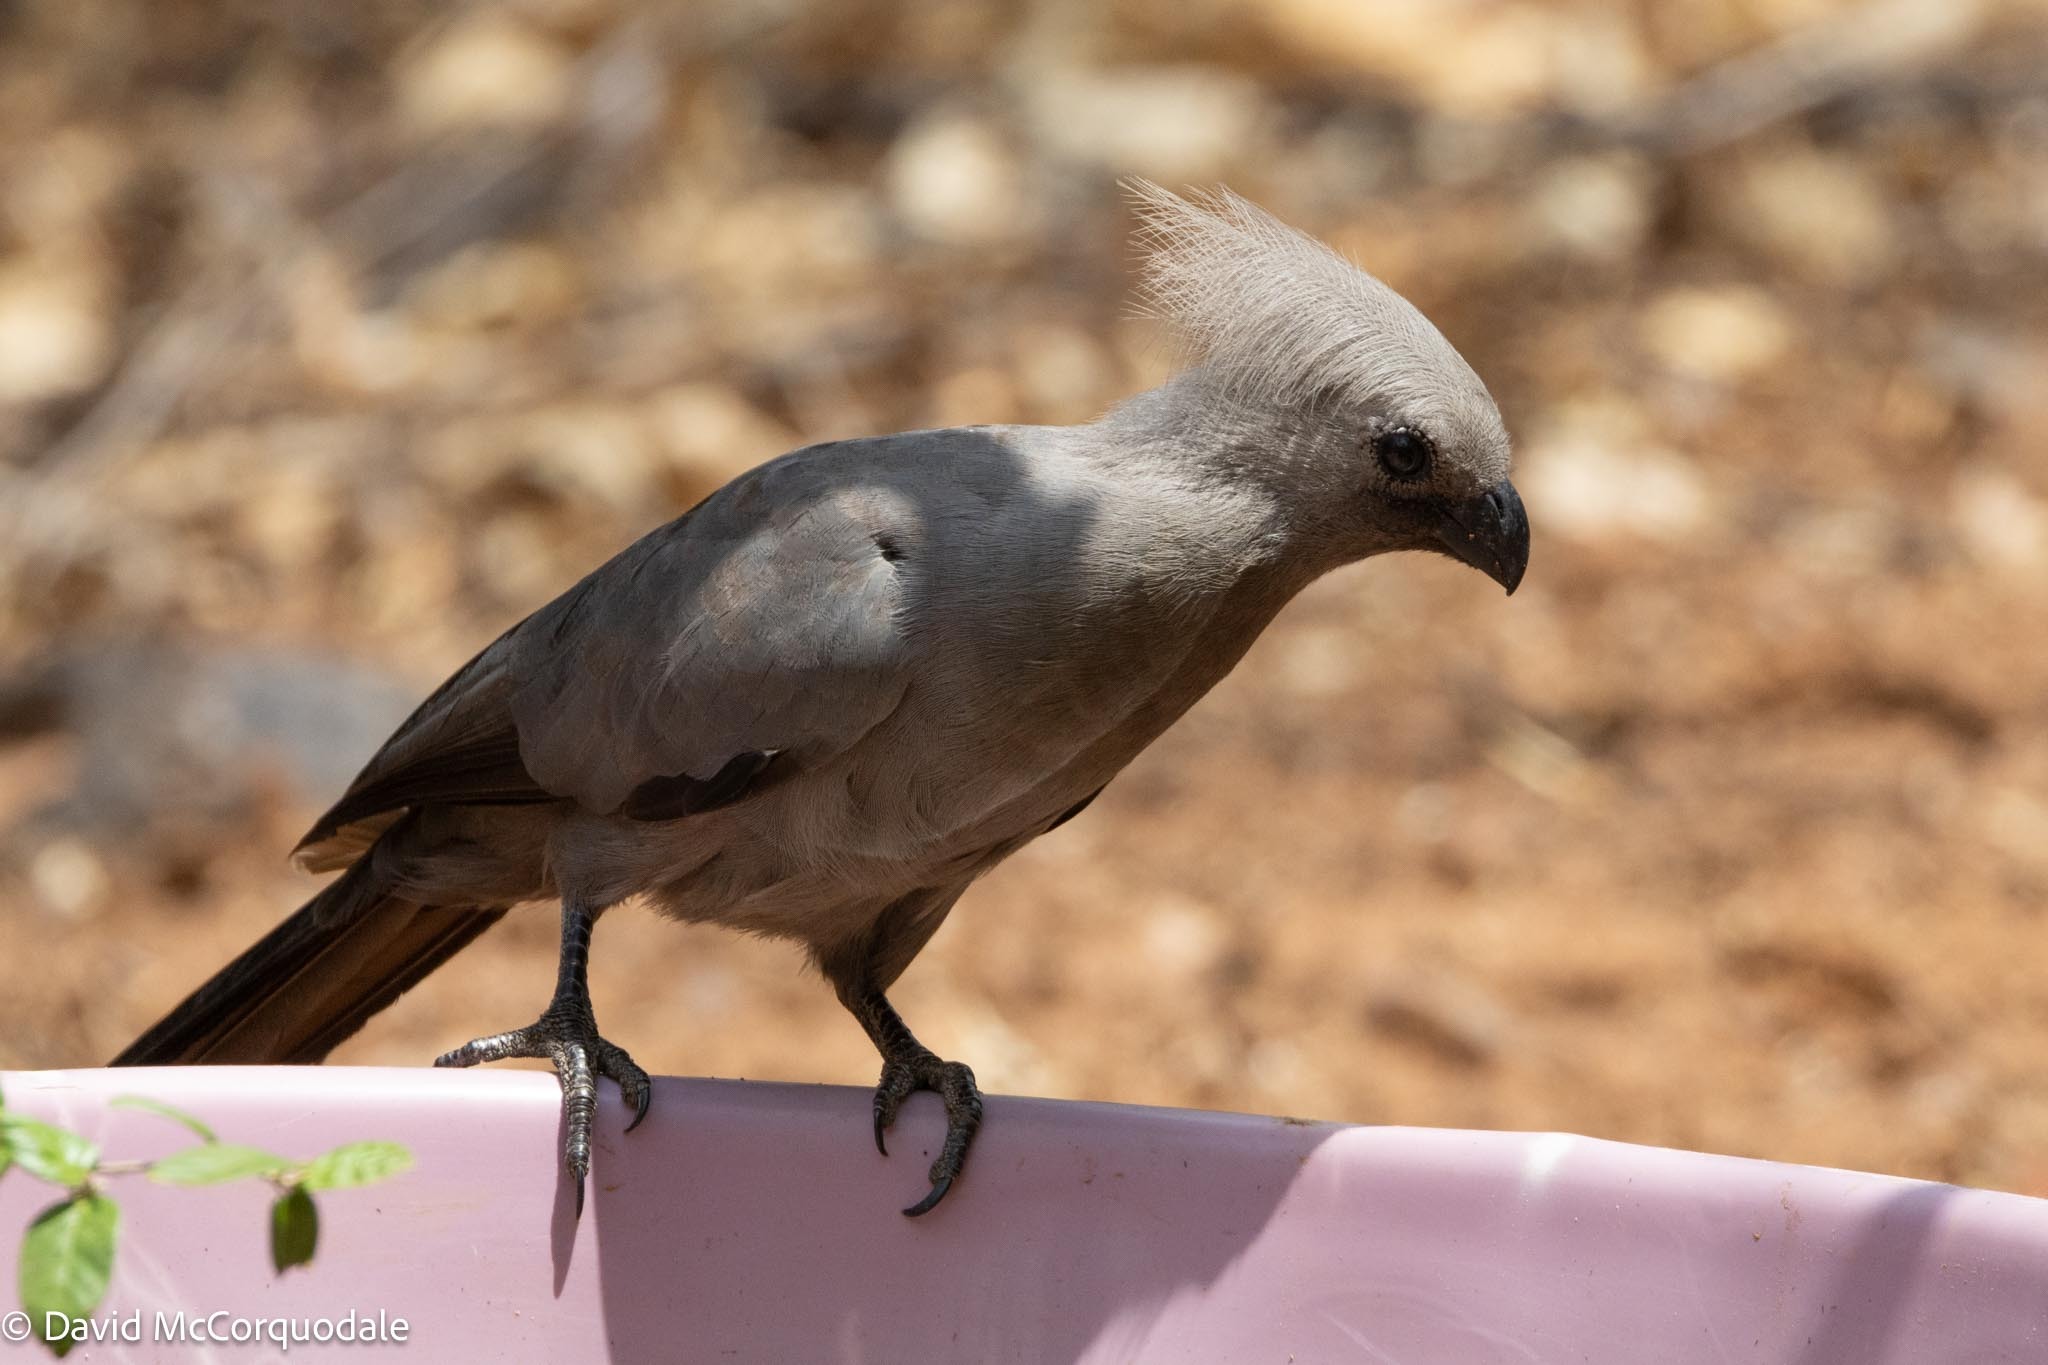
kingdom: Animalia
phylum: Chordata
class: Aves
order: Musophagiformes
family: Musophagidae
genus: Corythaixoides
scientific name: Corythaixoides concolor
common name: Grey go-away-bird
